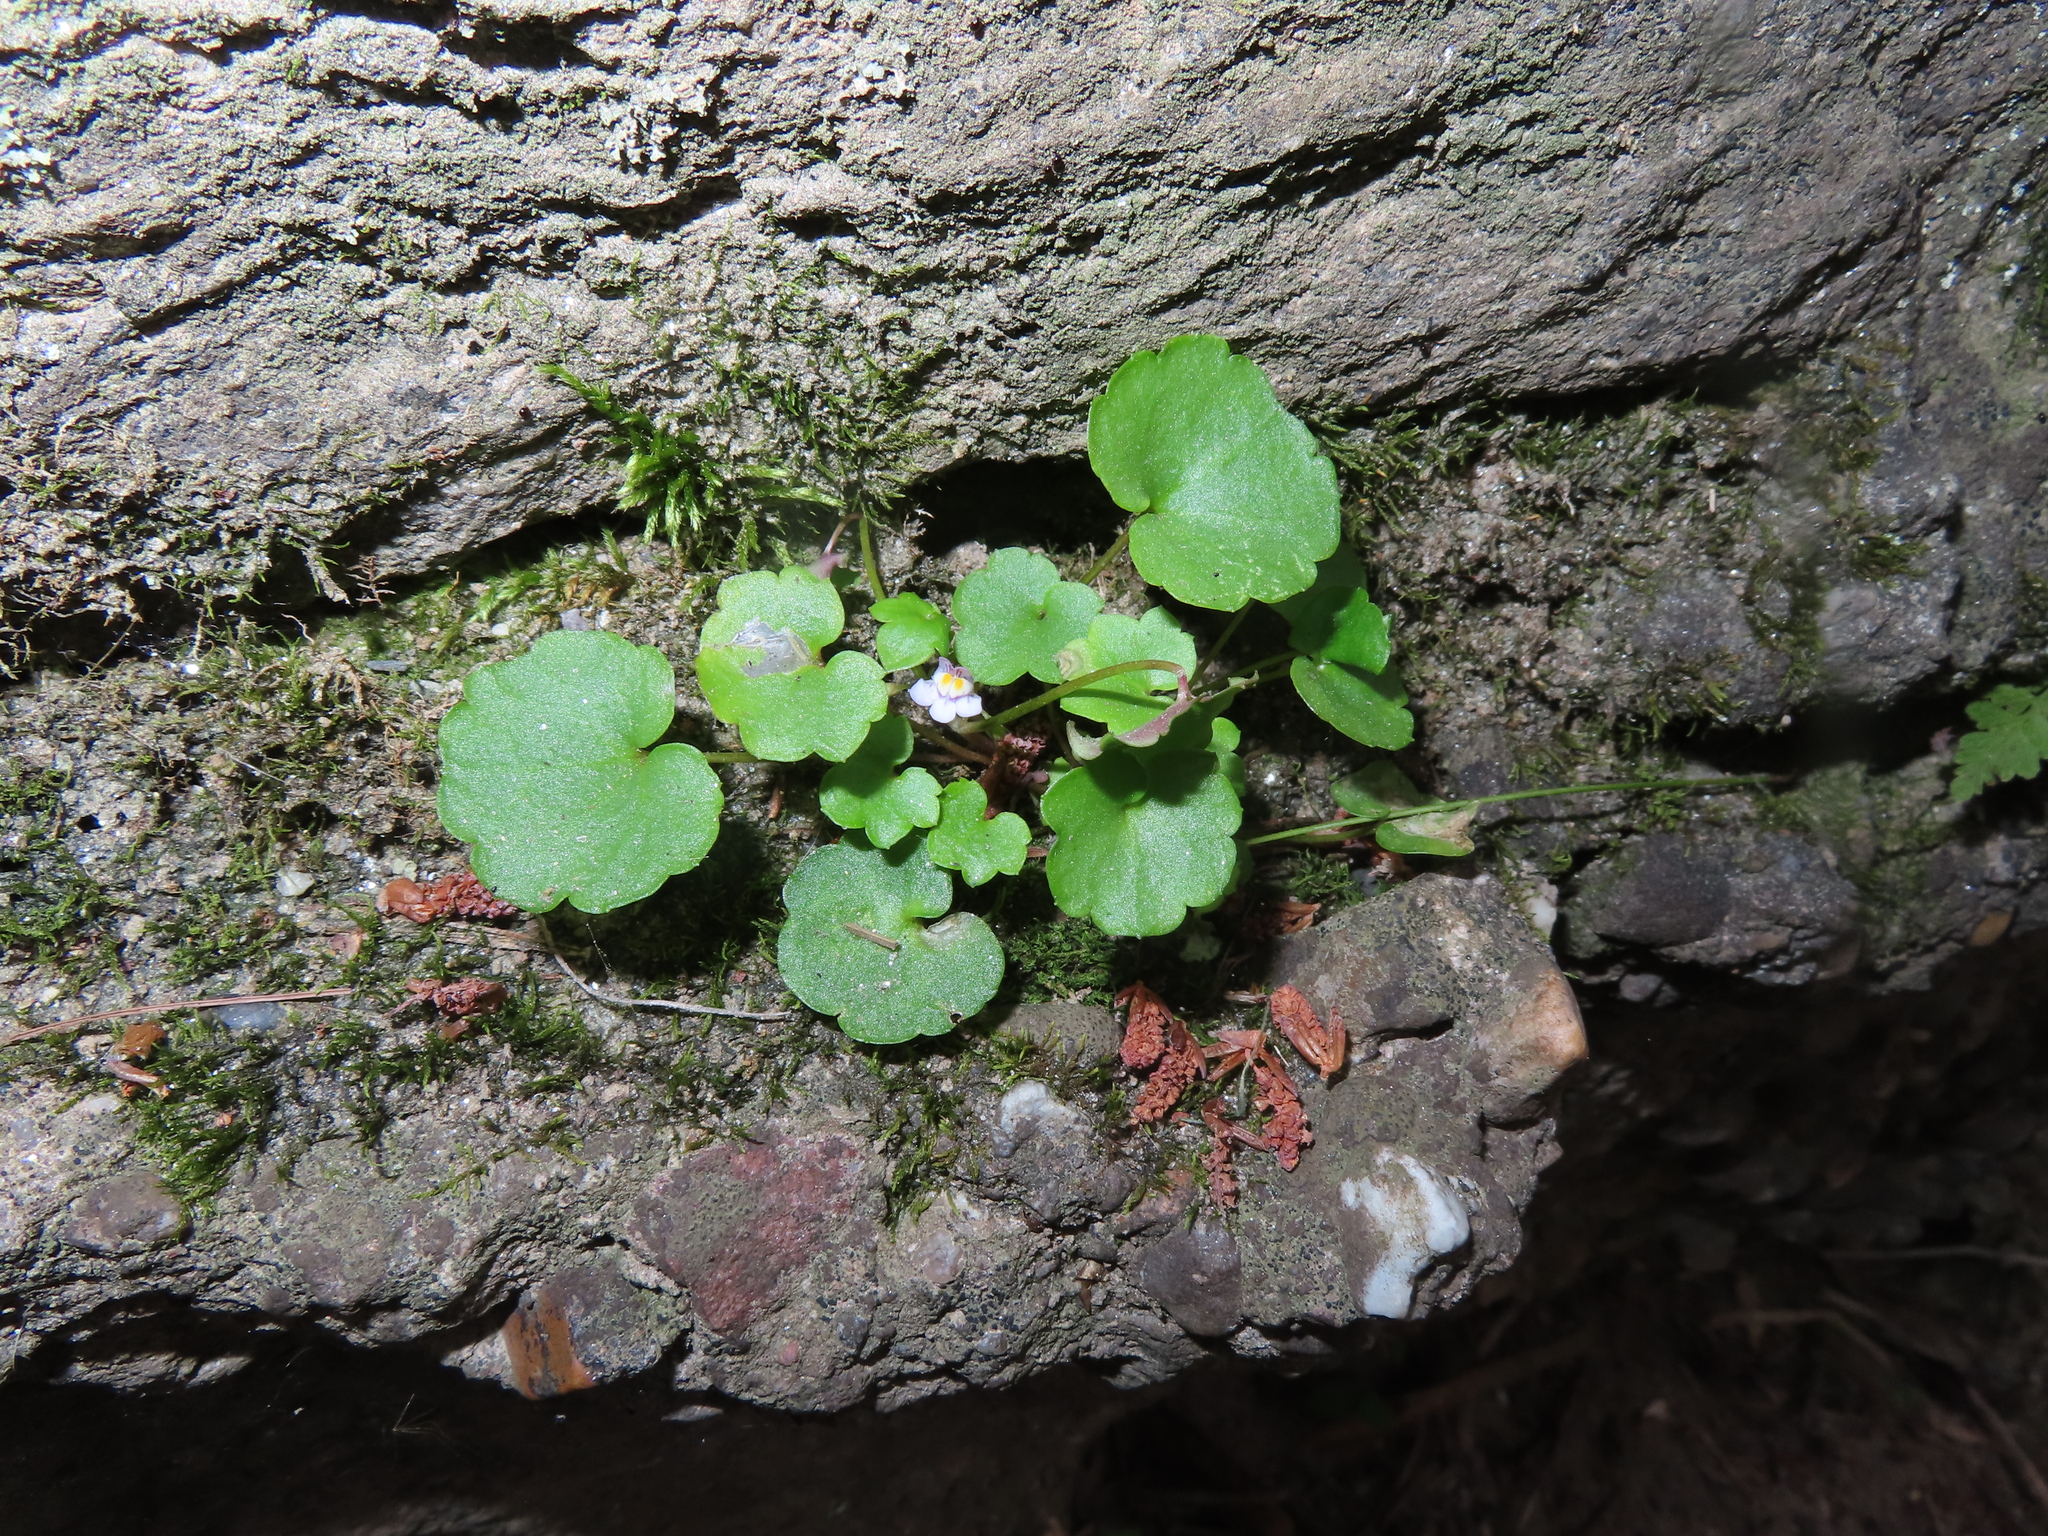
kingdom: Plantae
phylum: Tracheophyta
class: Magnoliopsida
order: Lamiales
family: Plantaginaceae
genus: Cymbalaria
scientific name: Cymbalaria muralis
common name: Ivy-leaved toadflax
